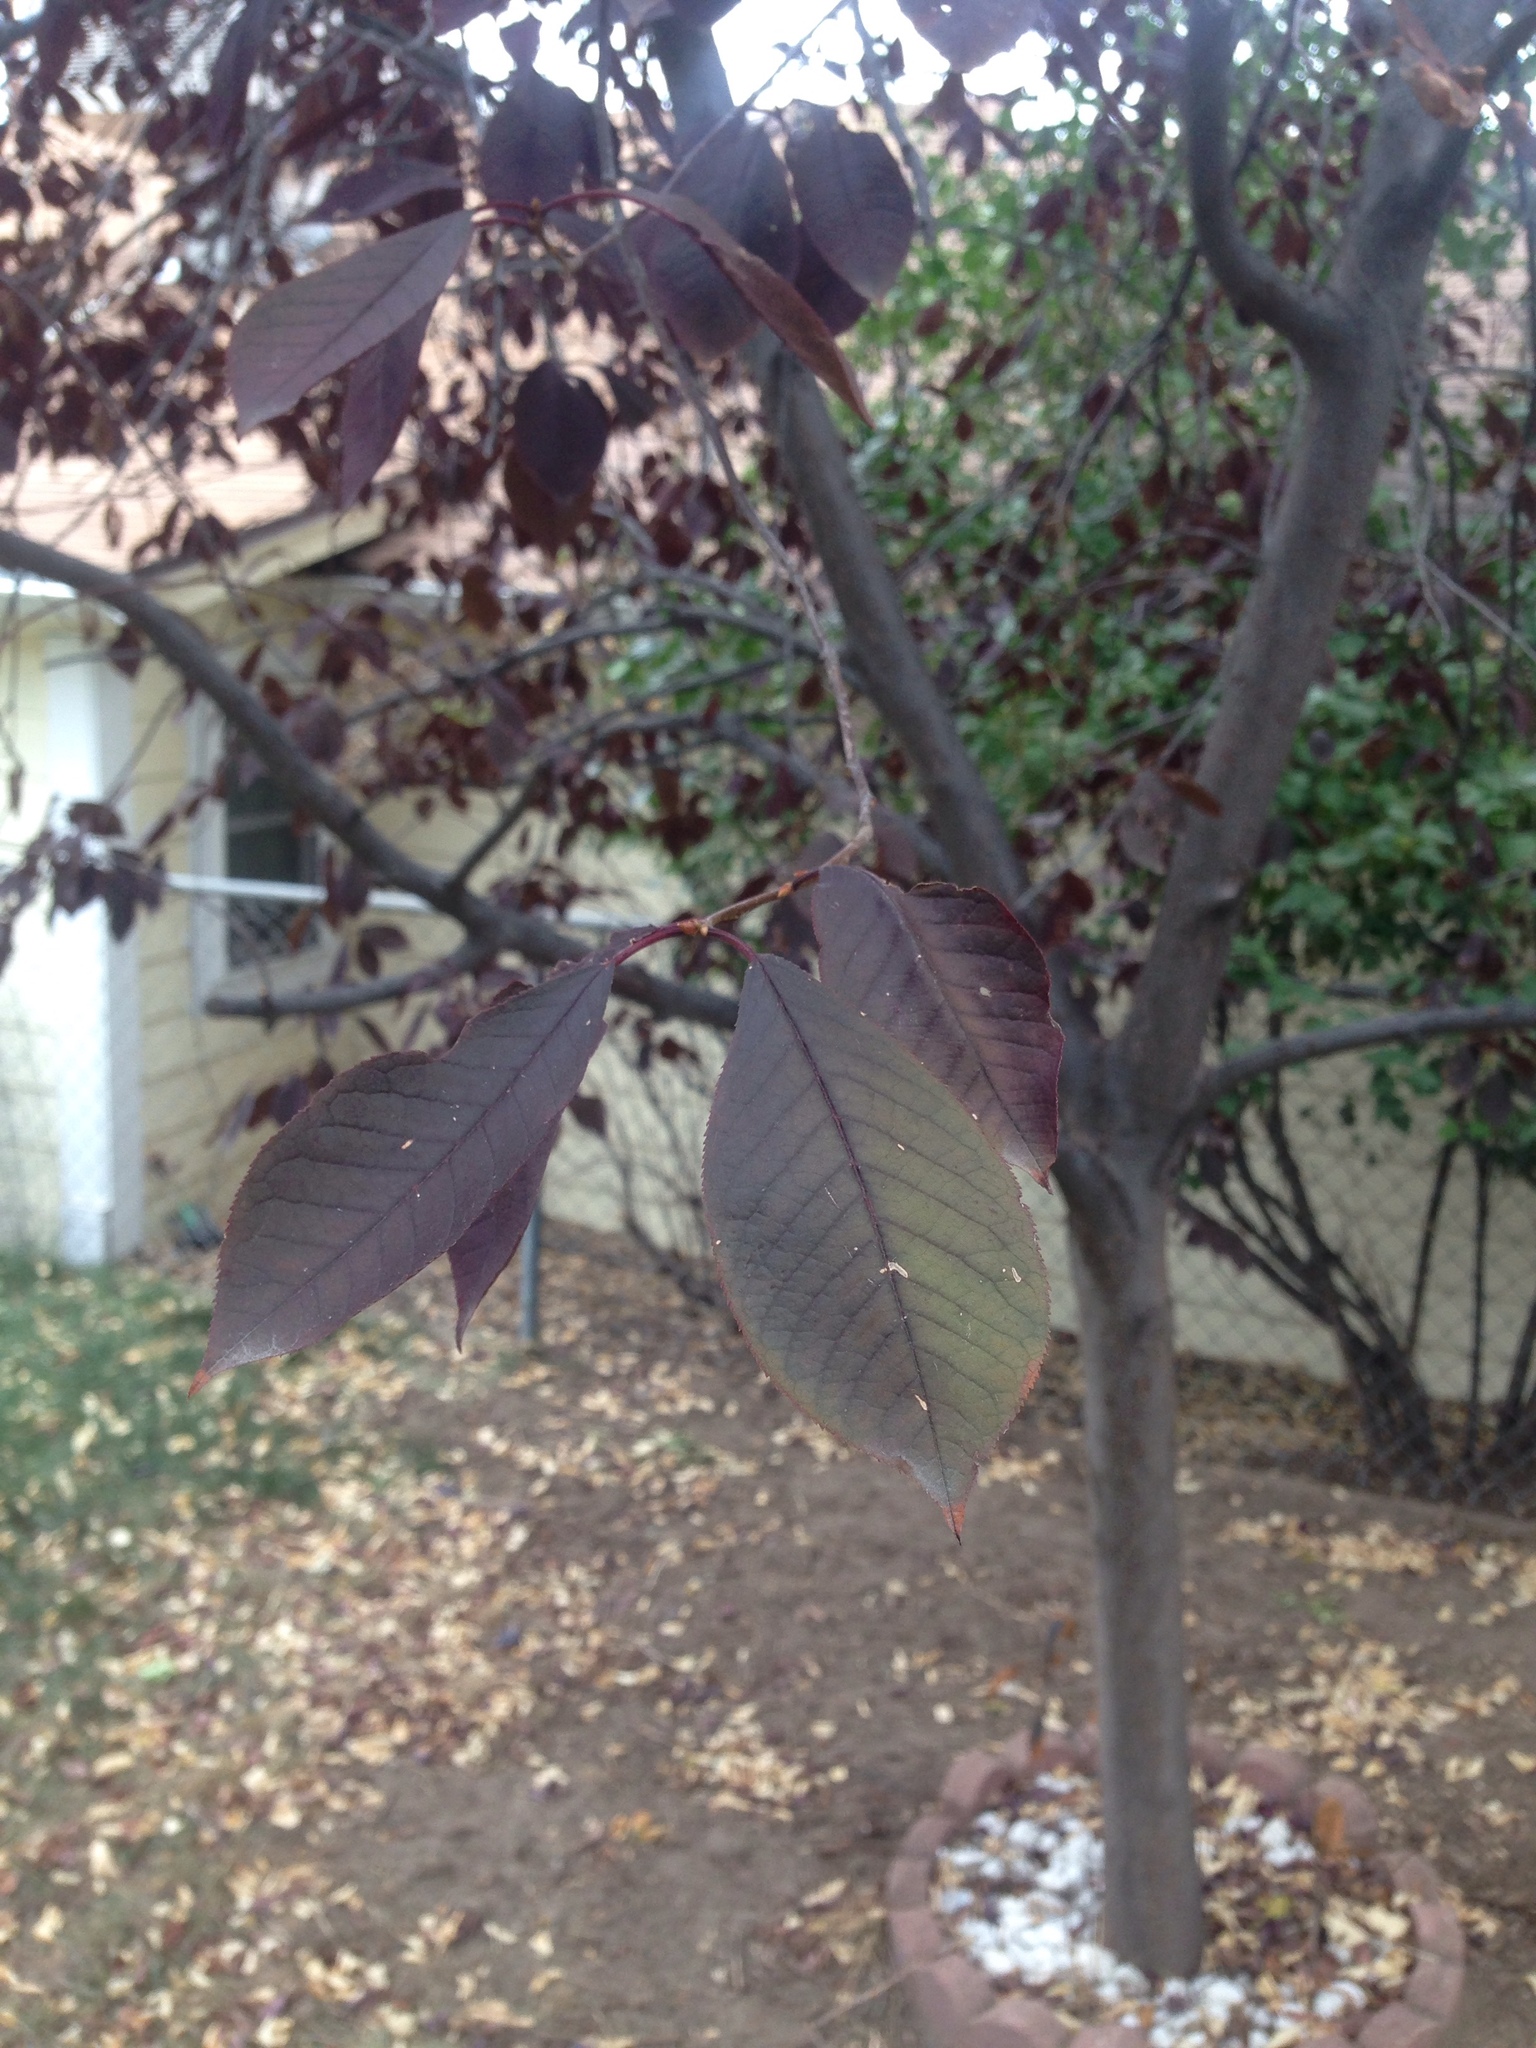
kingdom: Plantae
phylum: Tracheophyta
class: Magnoliopsida
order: Rosales
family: Rosaceae
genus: Prunus
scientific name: Prunus virginiana
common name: Chokecherry
